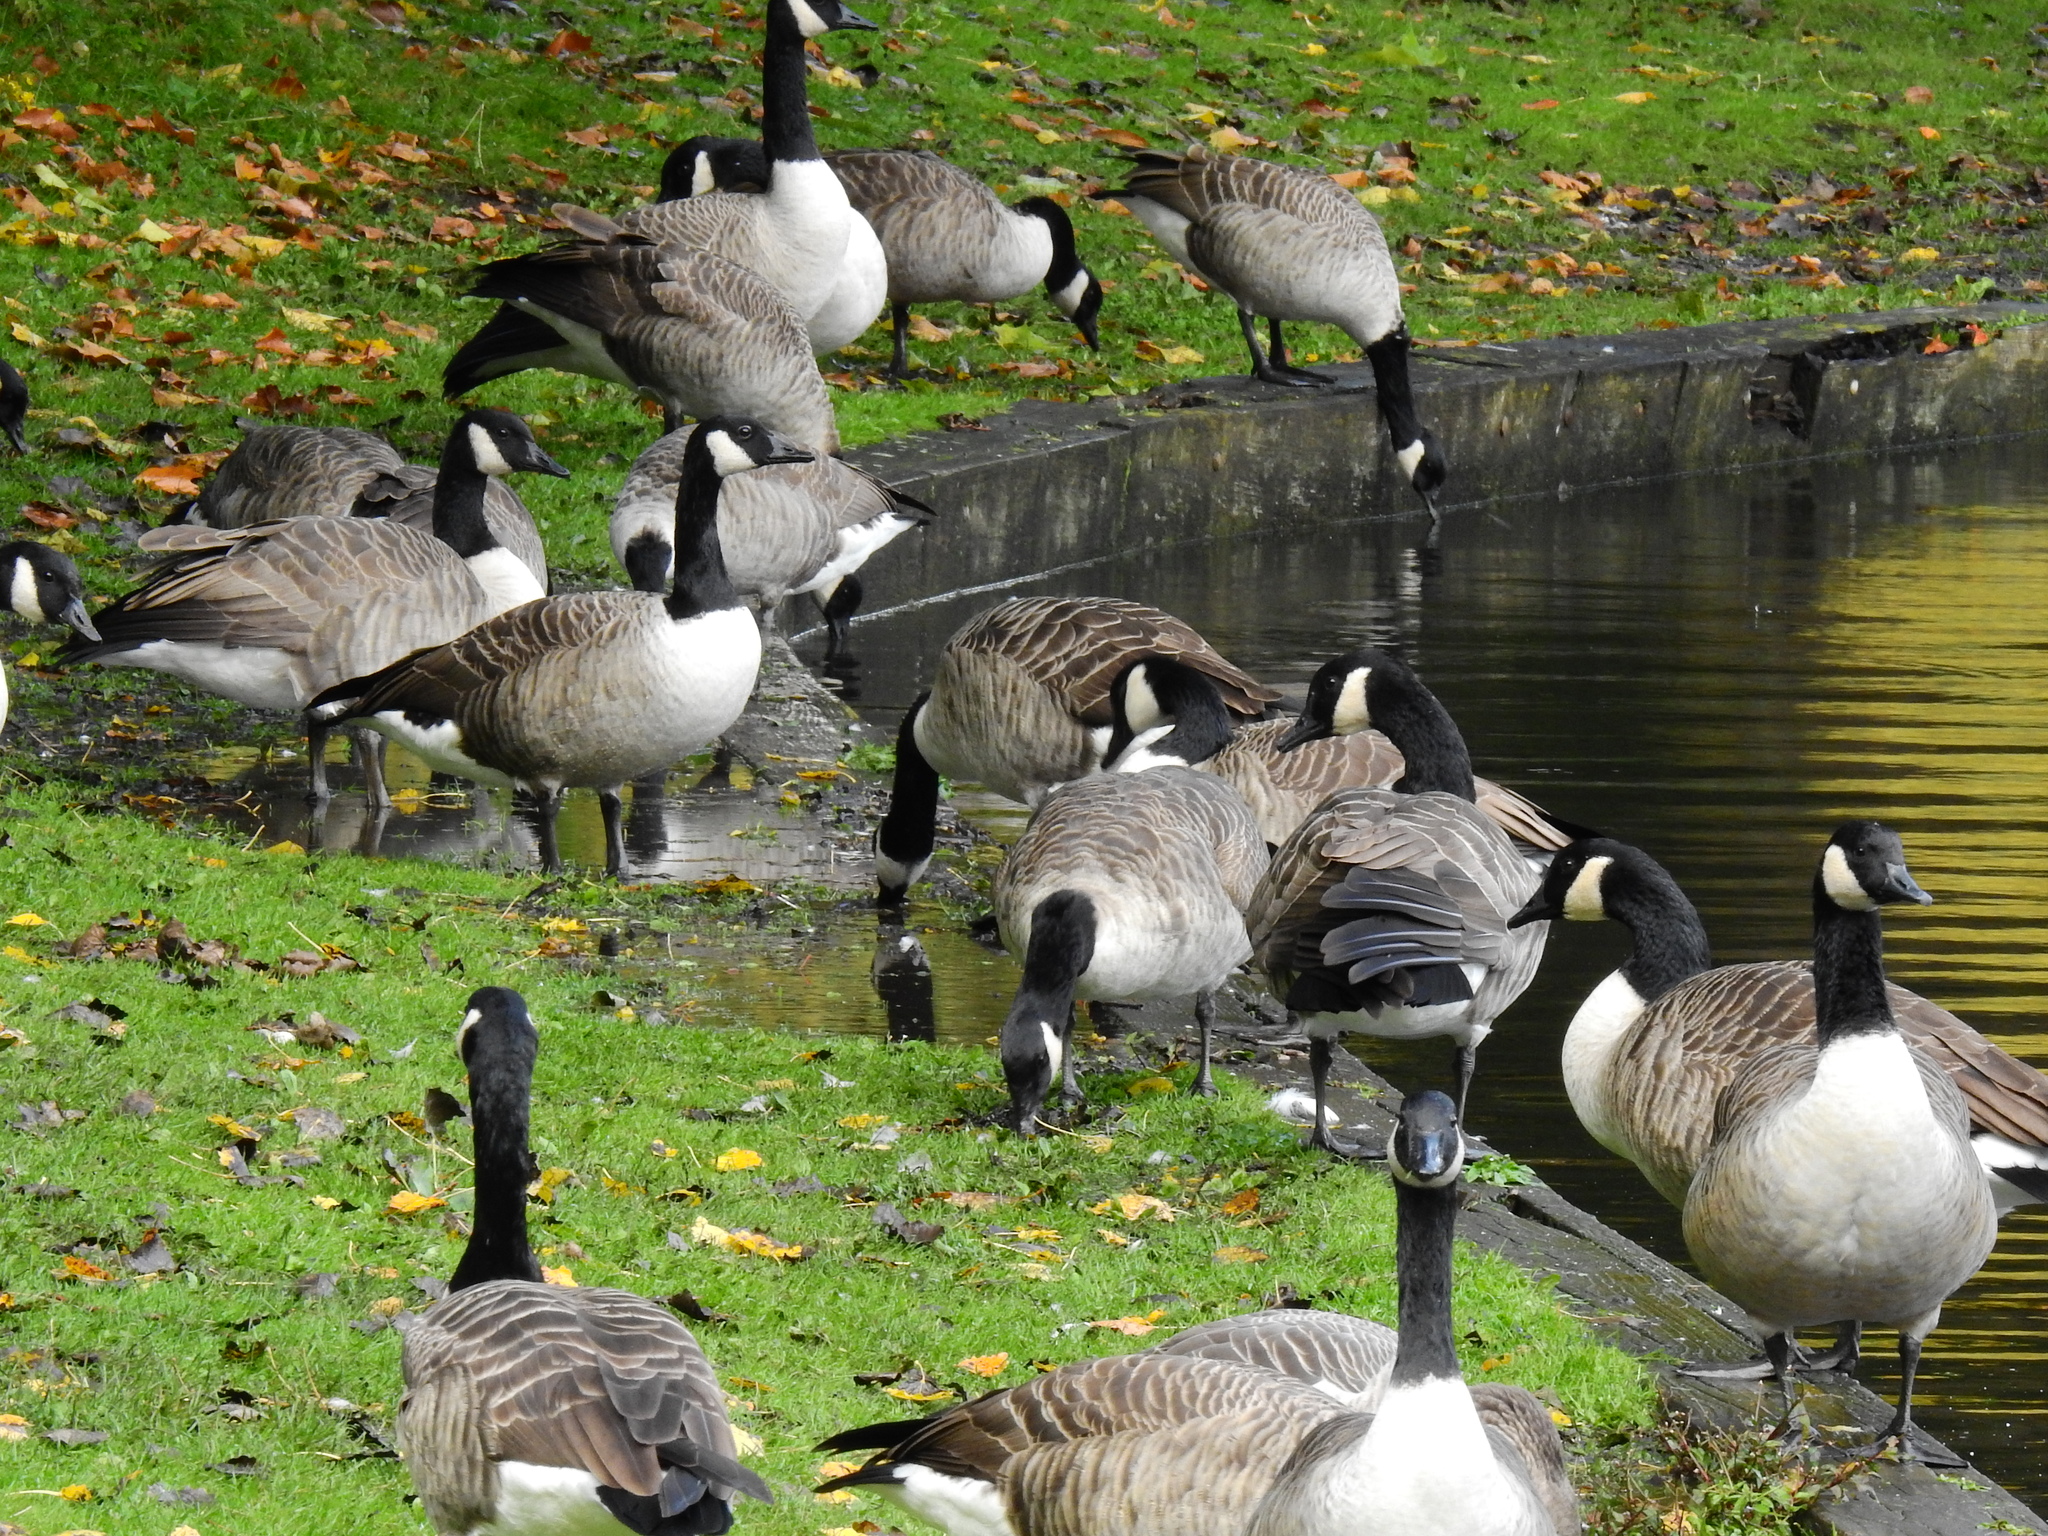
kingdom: Animalia
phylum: Chordata
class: Aves
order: Anseriformes
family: Anatidae
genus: Branta
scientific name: Branta canadensis
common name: Canada goose
